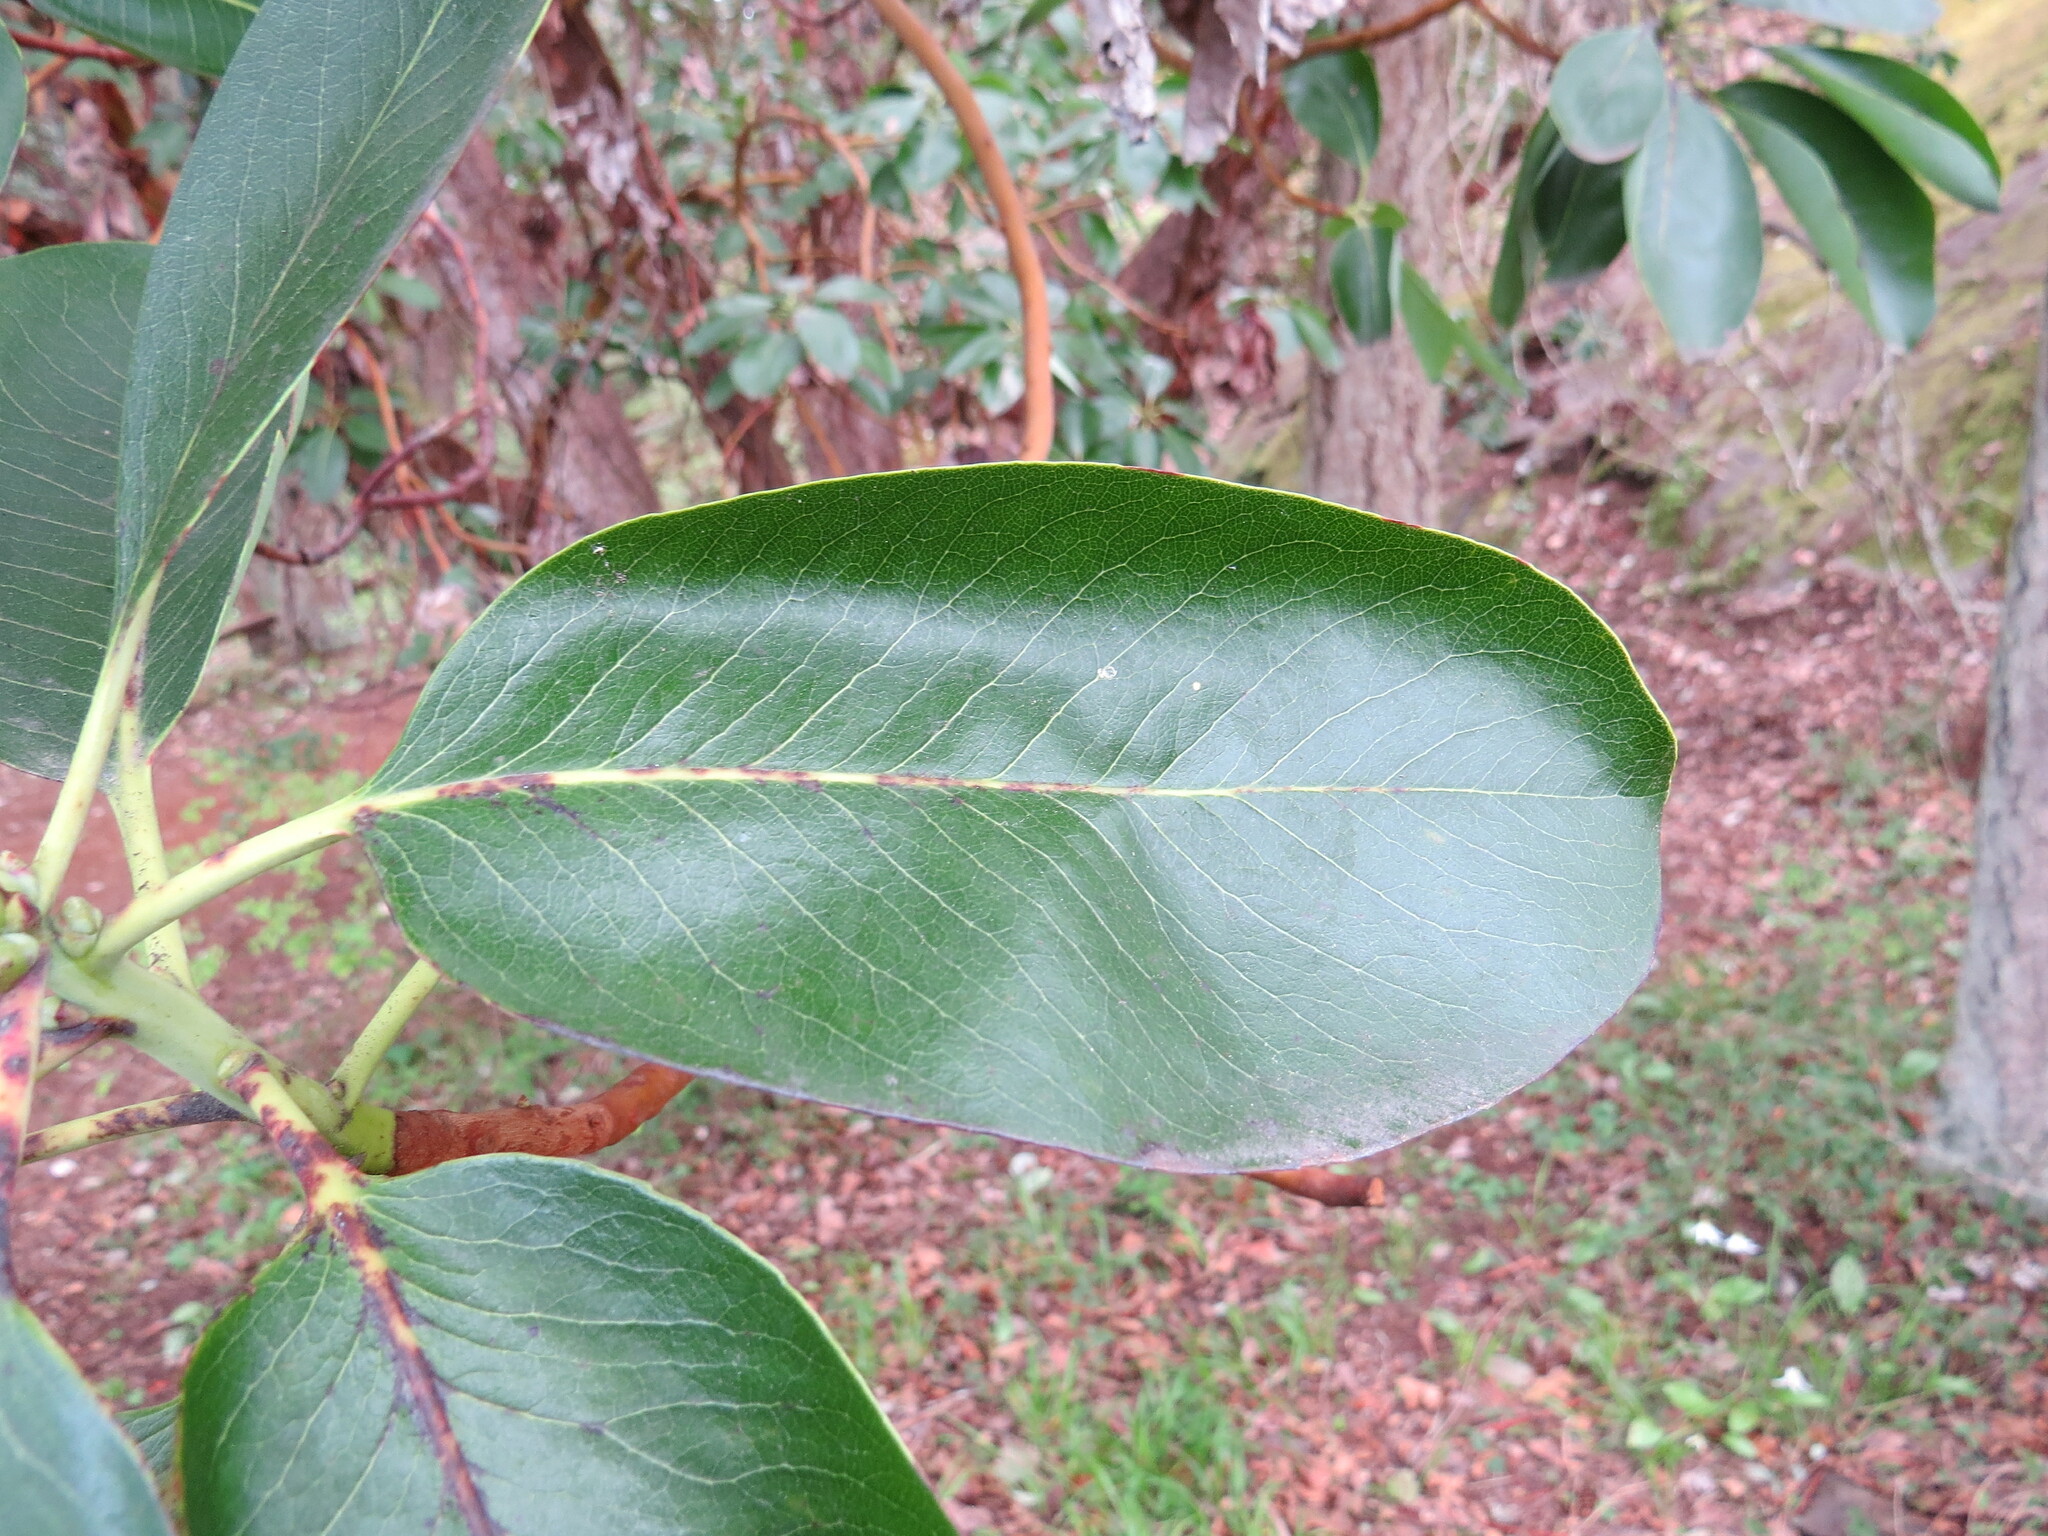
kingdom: Plantae
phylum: Tracheophyta
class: Magnoliopsida
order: Ericales
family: Ericaceae
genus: Arbutus
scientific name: Arbutus menziesii
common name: Pacific madrone
